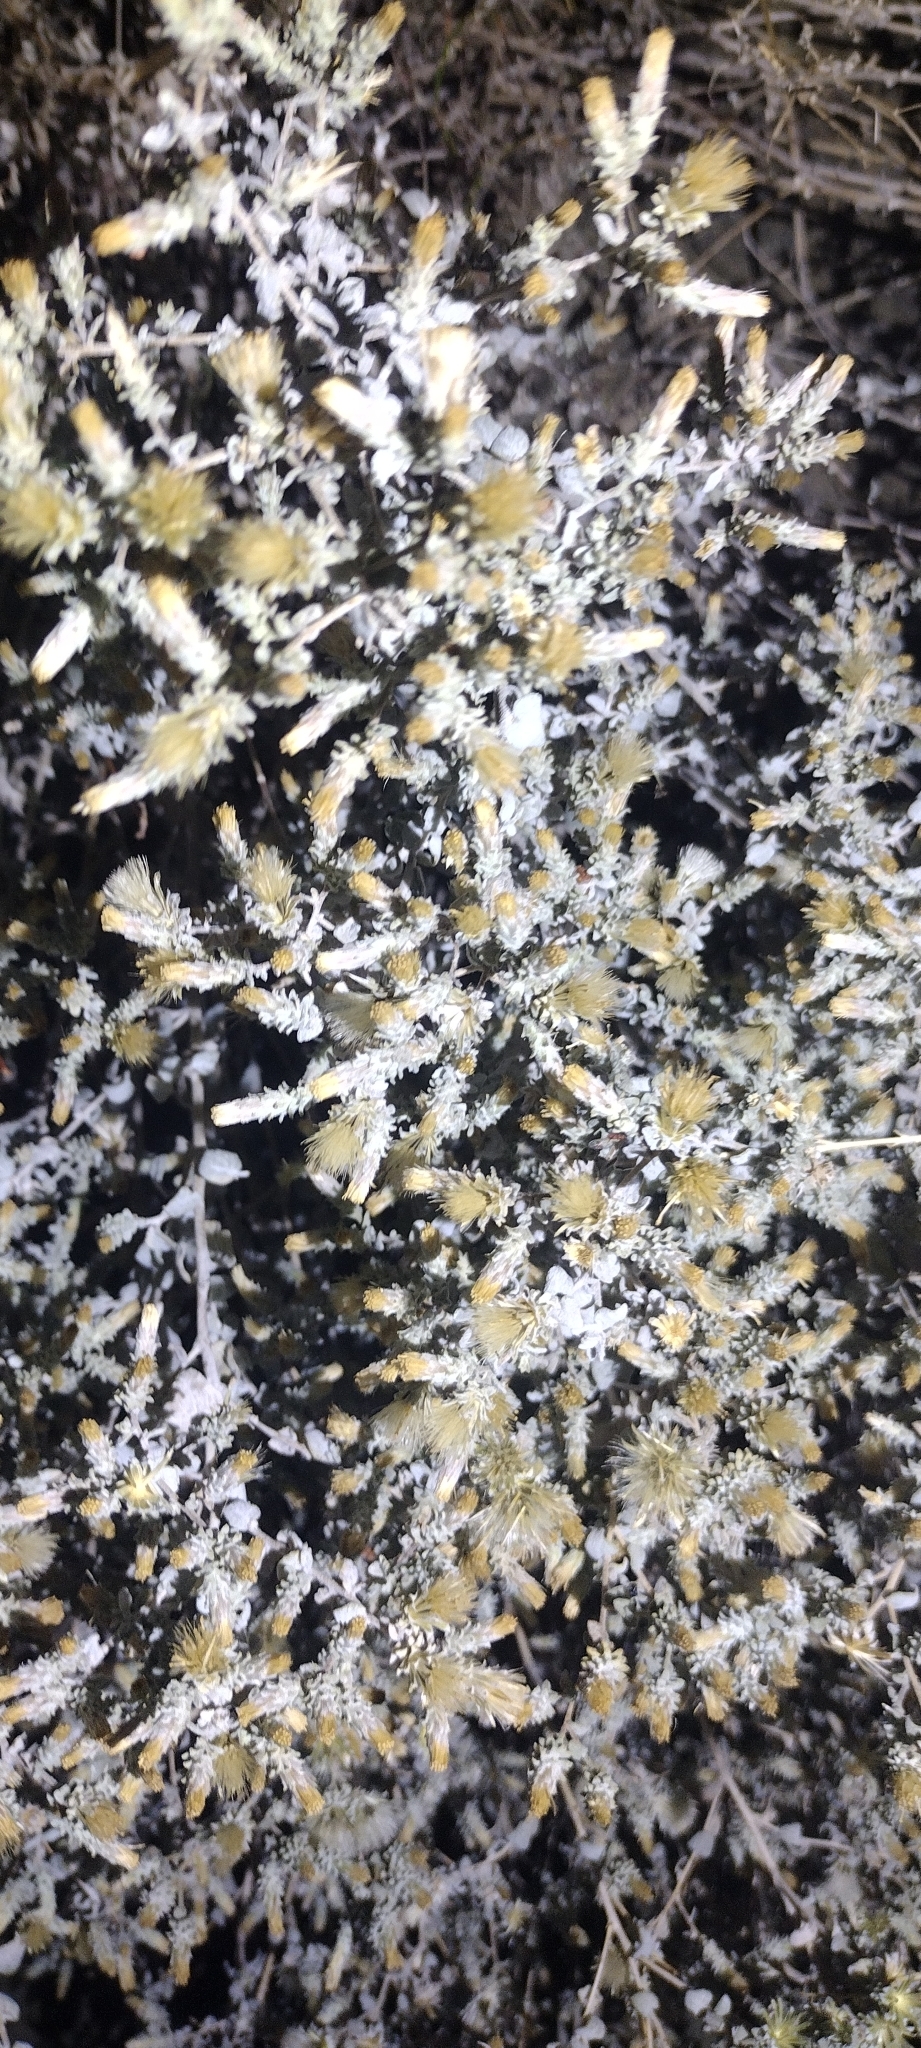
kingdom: Plantae
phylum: Tracheophyta
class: Magnoliopsida
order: Asterales
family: Asteraceae
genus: Brickellia
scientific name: Brickellia nevinii
